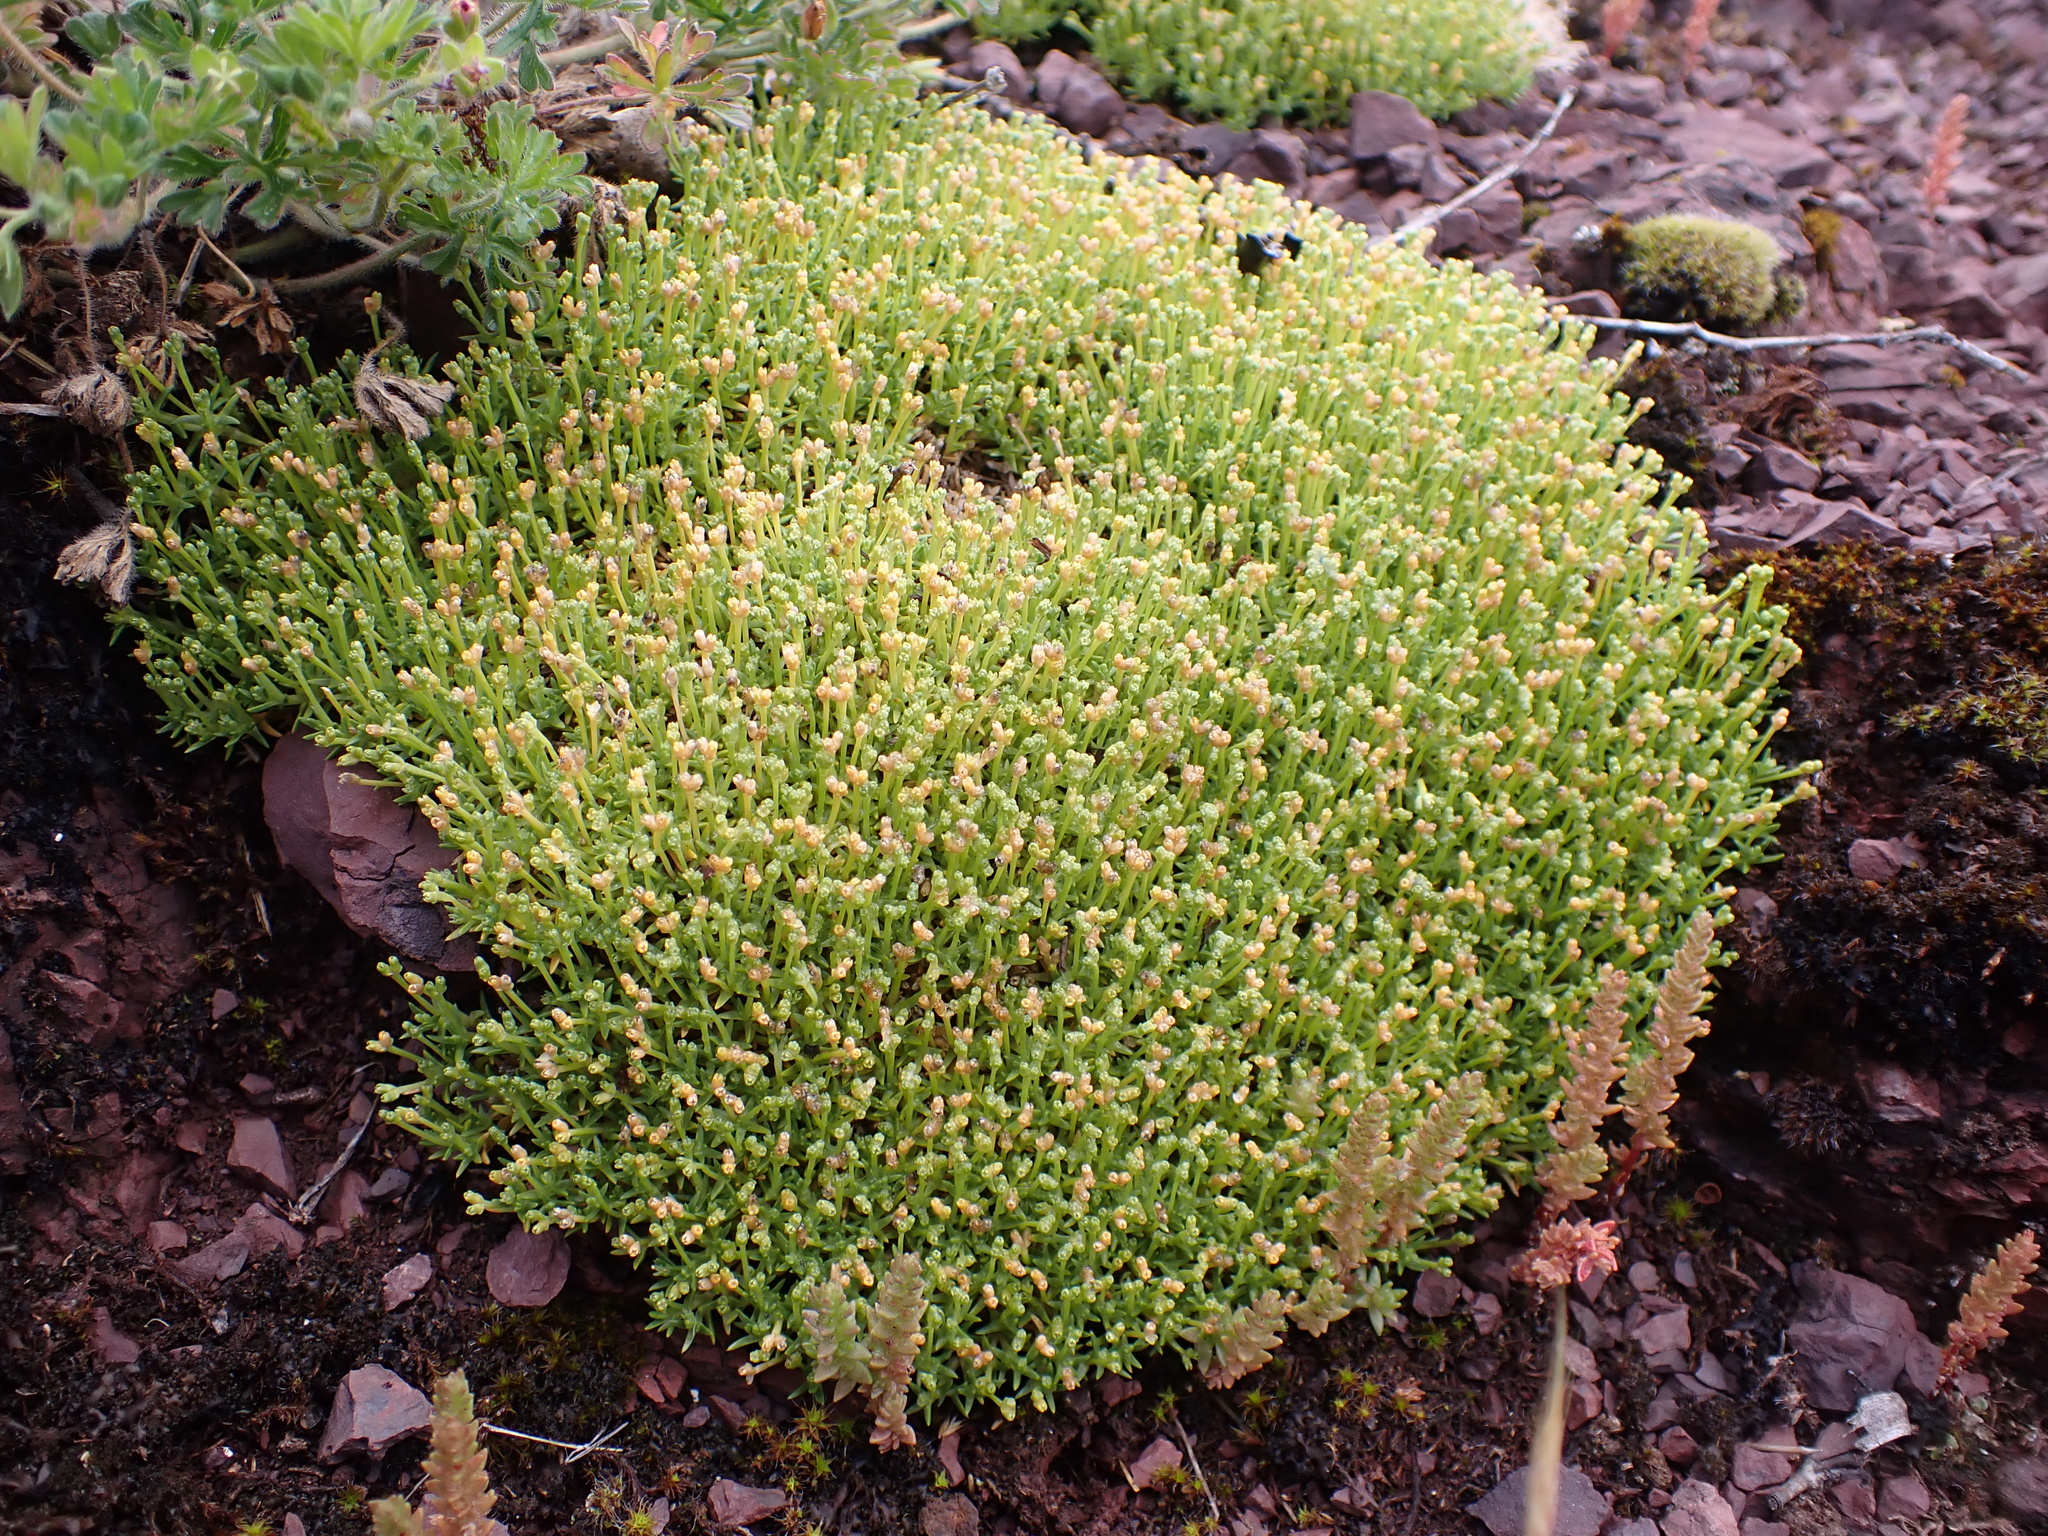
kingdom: Plantae
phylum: Tracheophyta
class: Magnoliopsida
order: Caryophyllales
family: Caryophyllaceae
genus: Scleranthus
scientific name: Scleranthus biflorus
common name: Two-flower knawel
